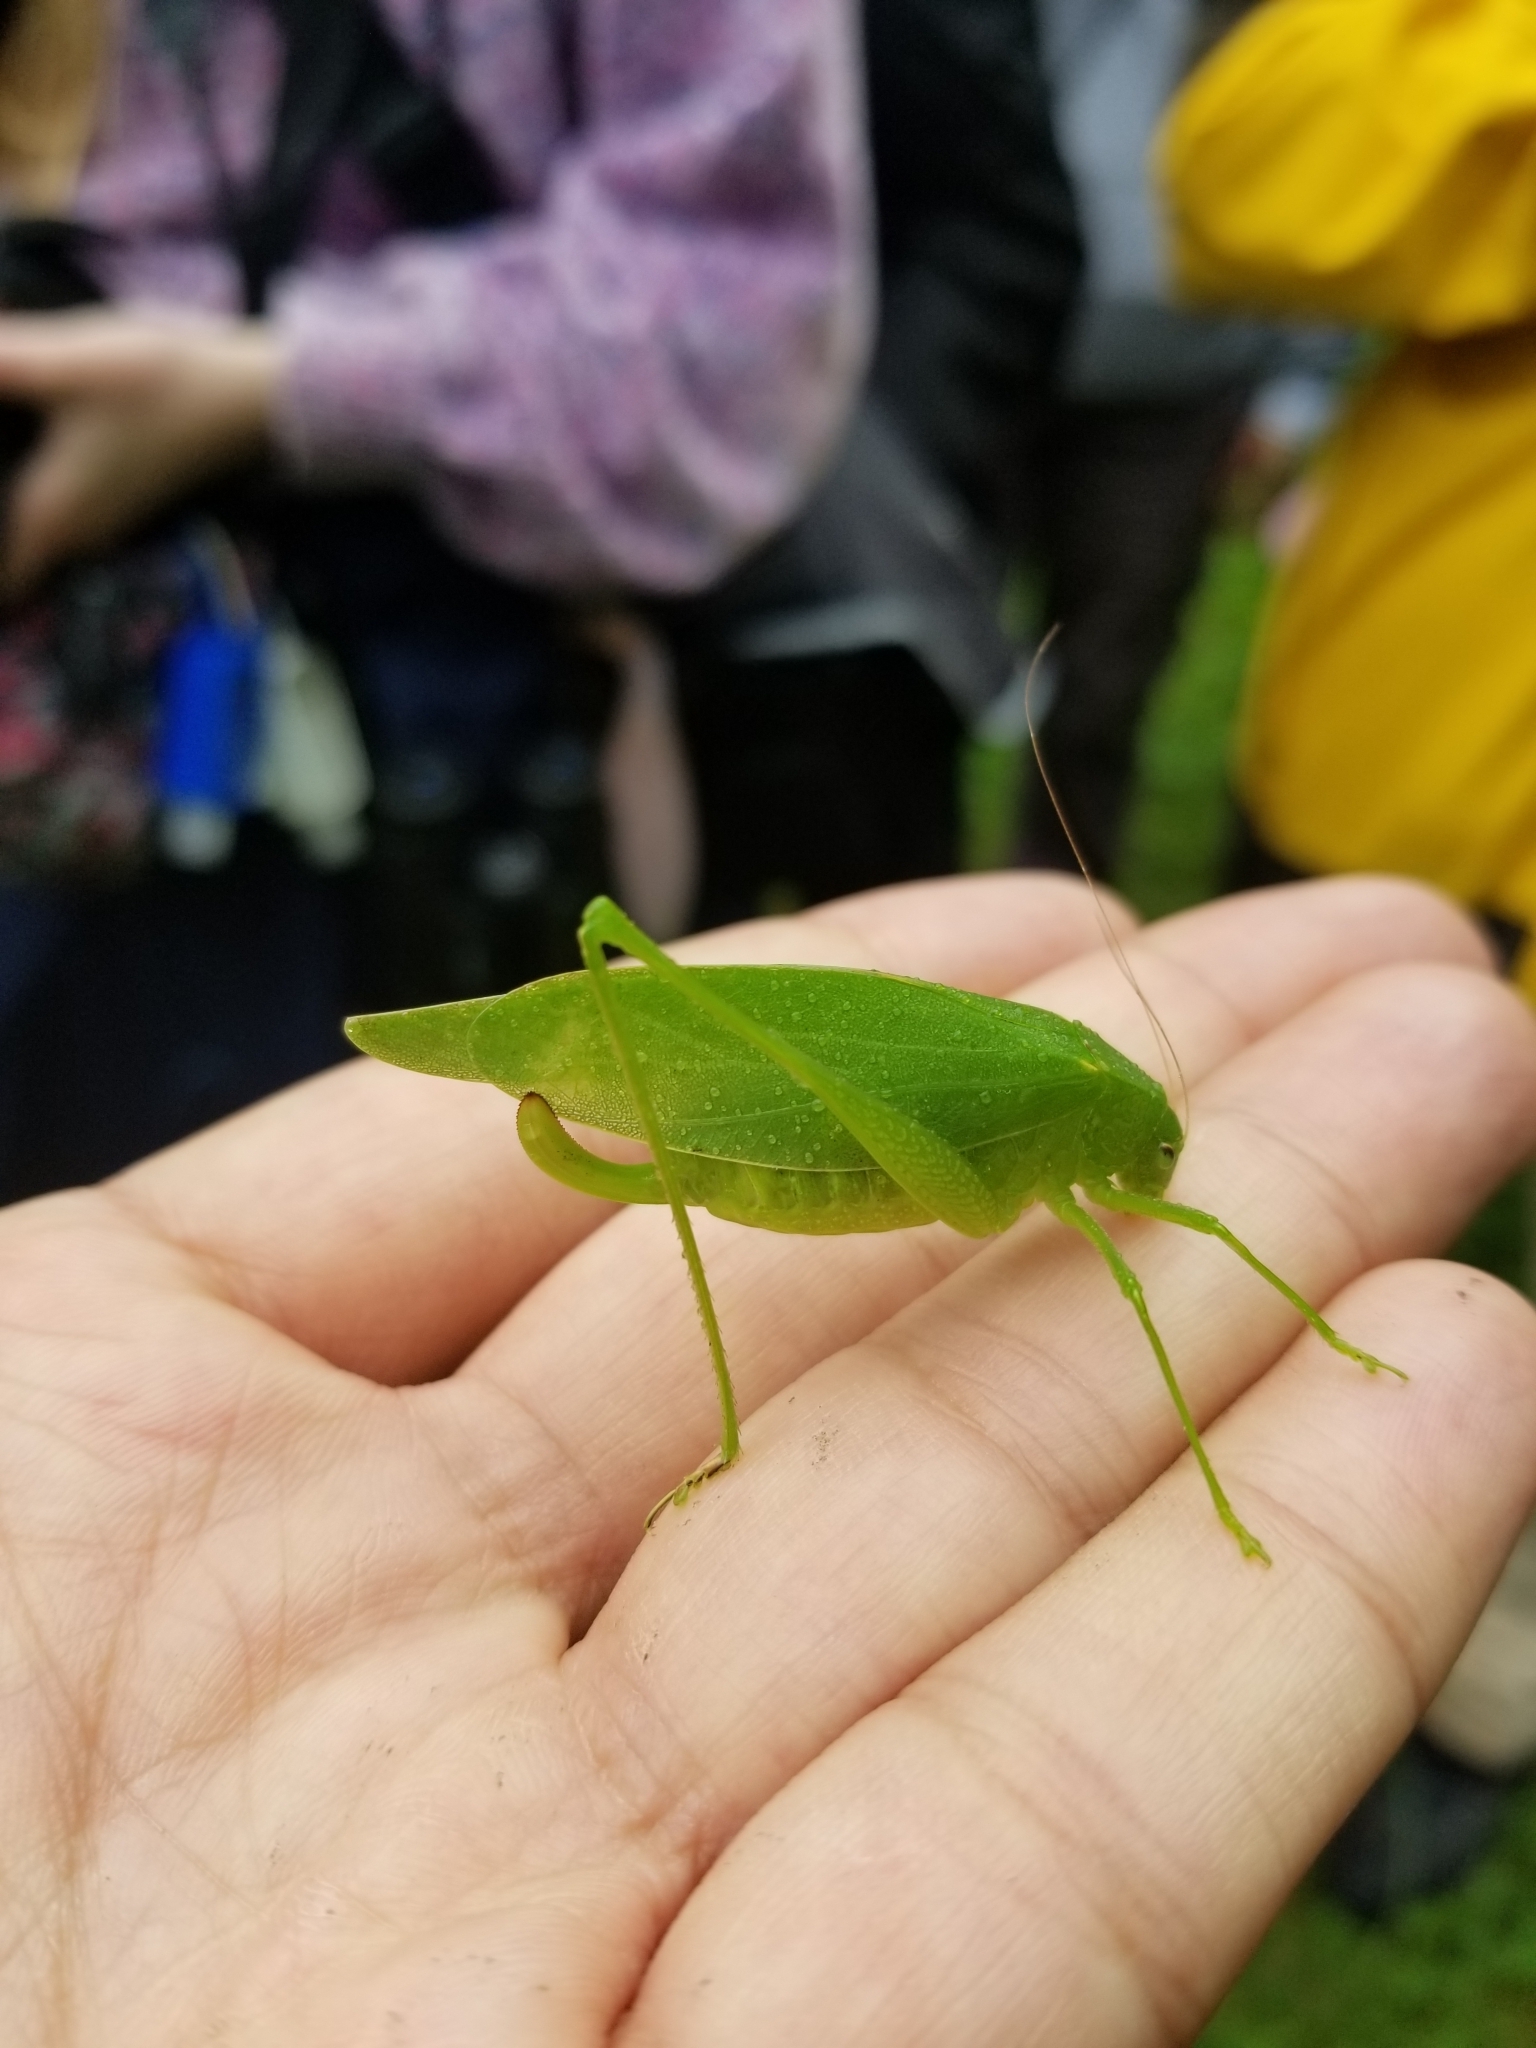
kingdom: Animalia
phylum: Arthropoda
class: Insecta
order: Orthoptera
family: Tettigoniidae
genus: Amblycorypha
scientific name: Amblycorypha oblongifolia
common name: Oblong-winged katydid
